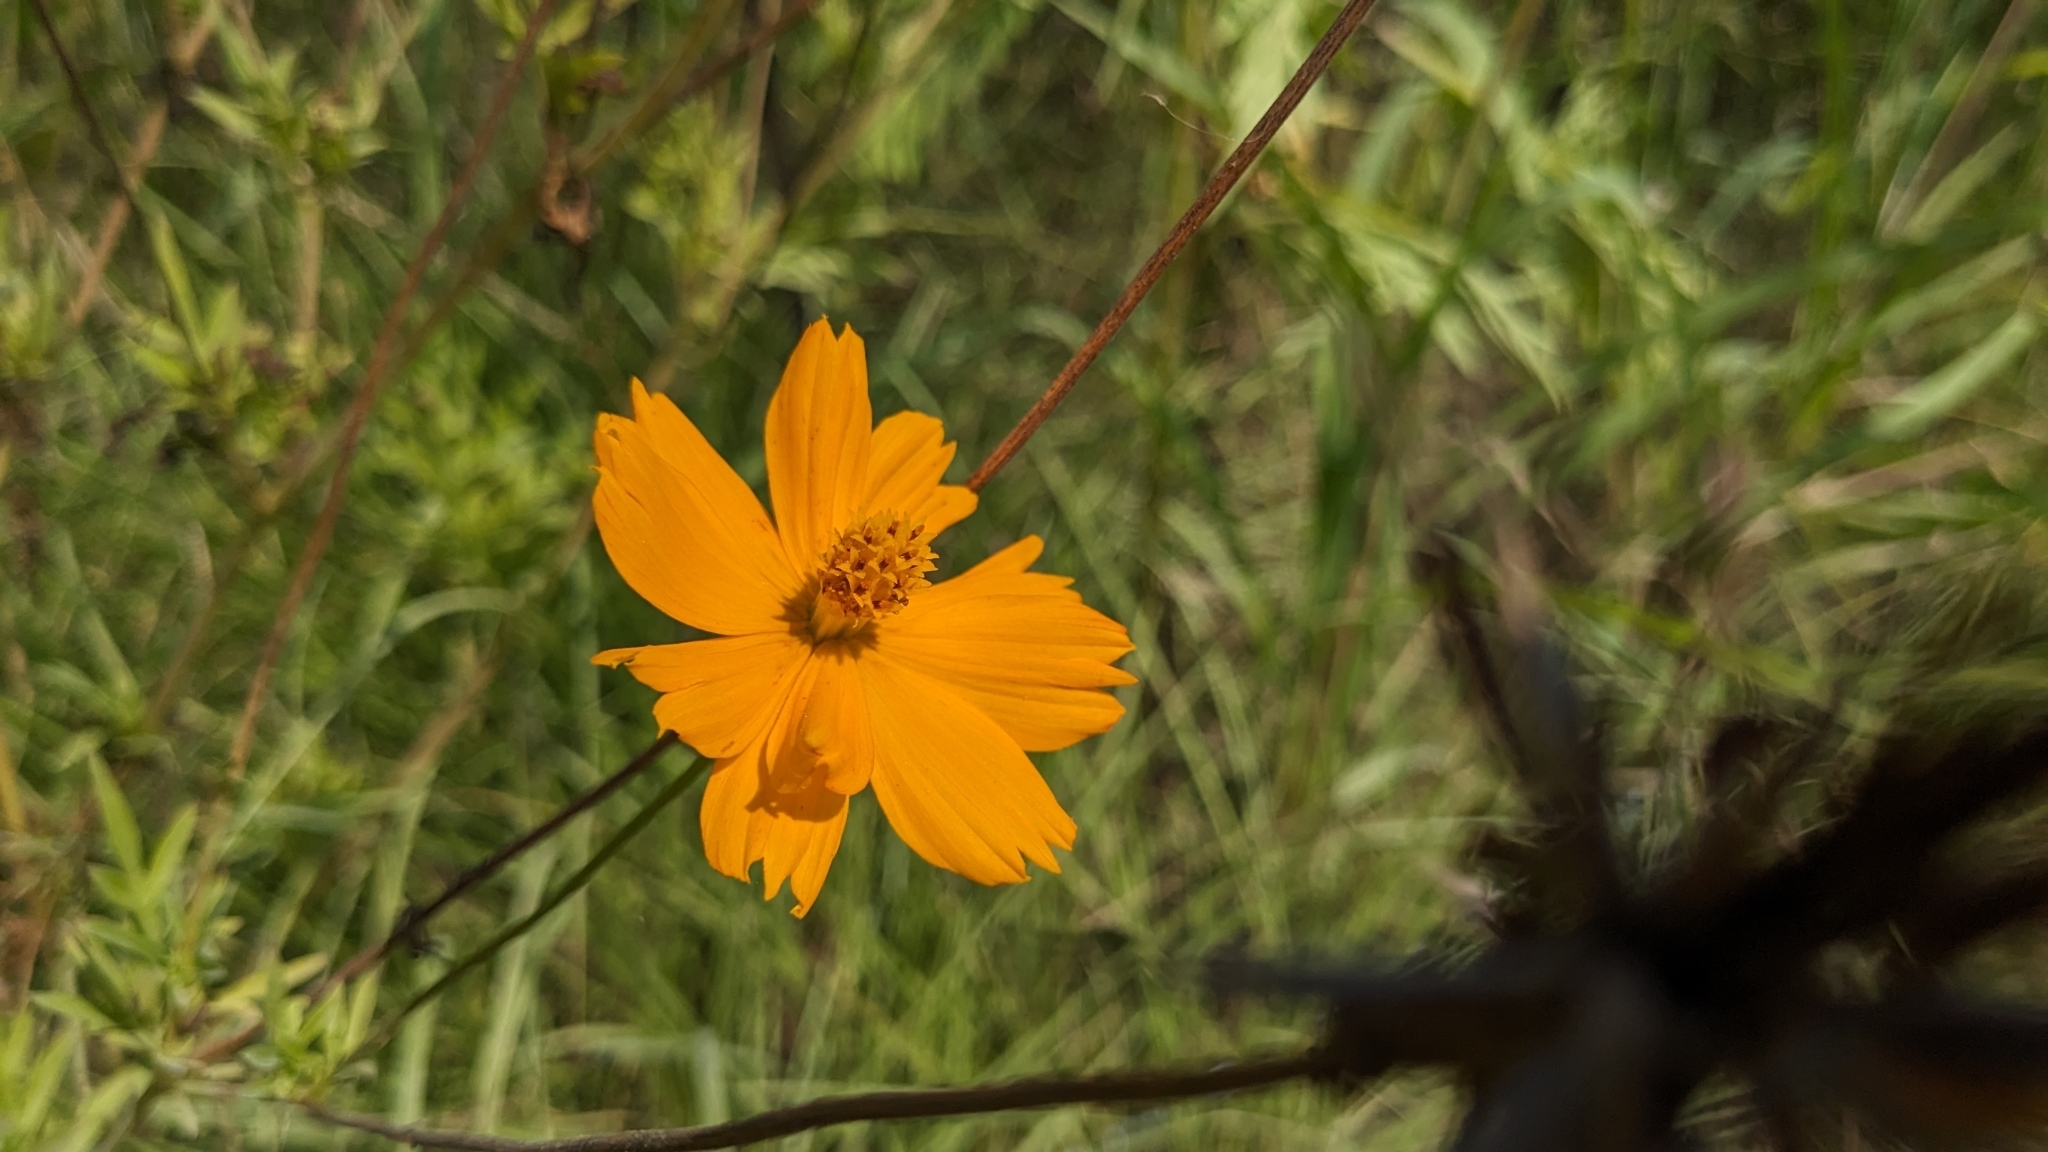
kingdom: Plantae
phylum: Tracheophyta
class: Magnoliopsida
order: Asterales
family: Asteraceae
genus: Cosmos
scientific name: Cosmos sulphureus
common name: Sulphur cosmos
